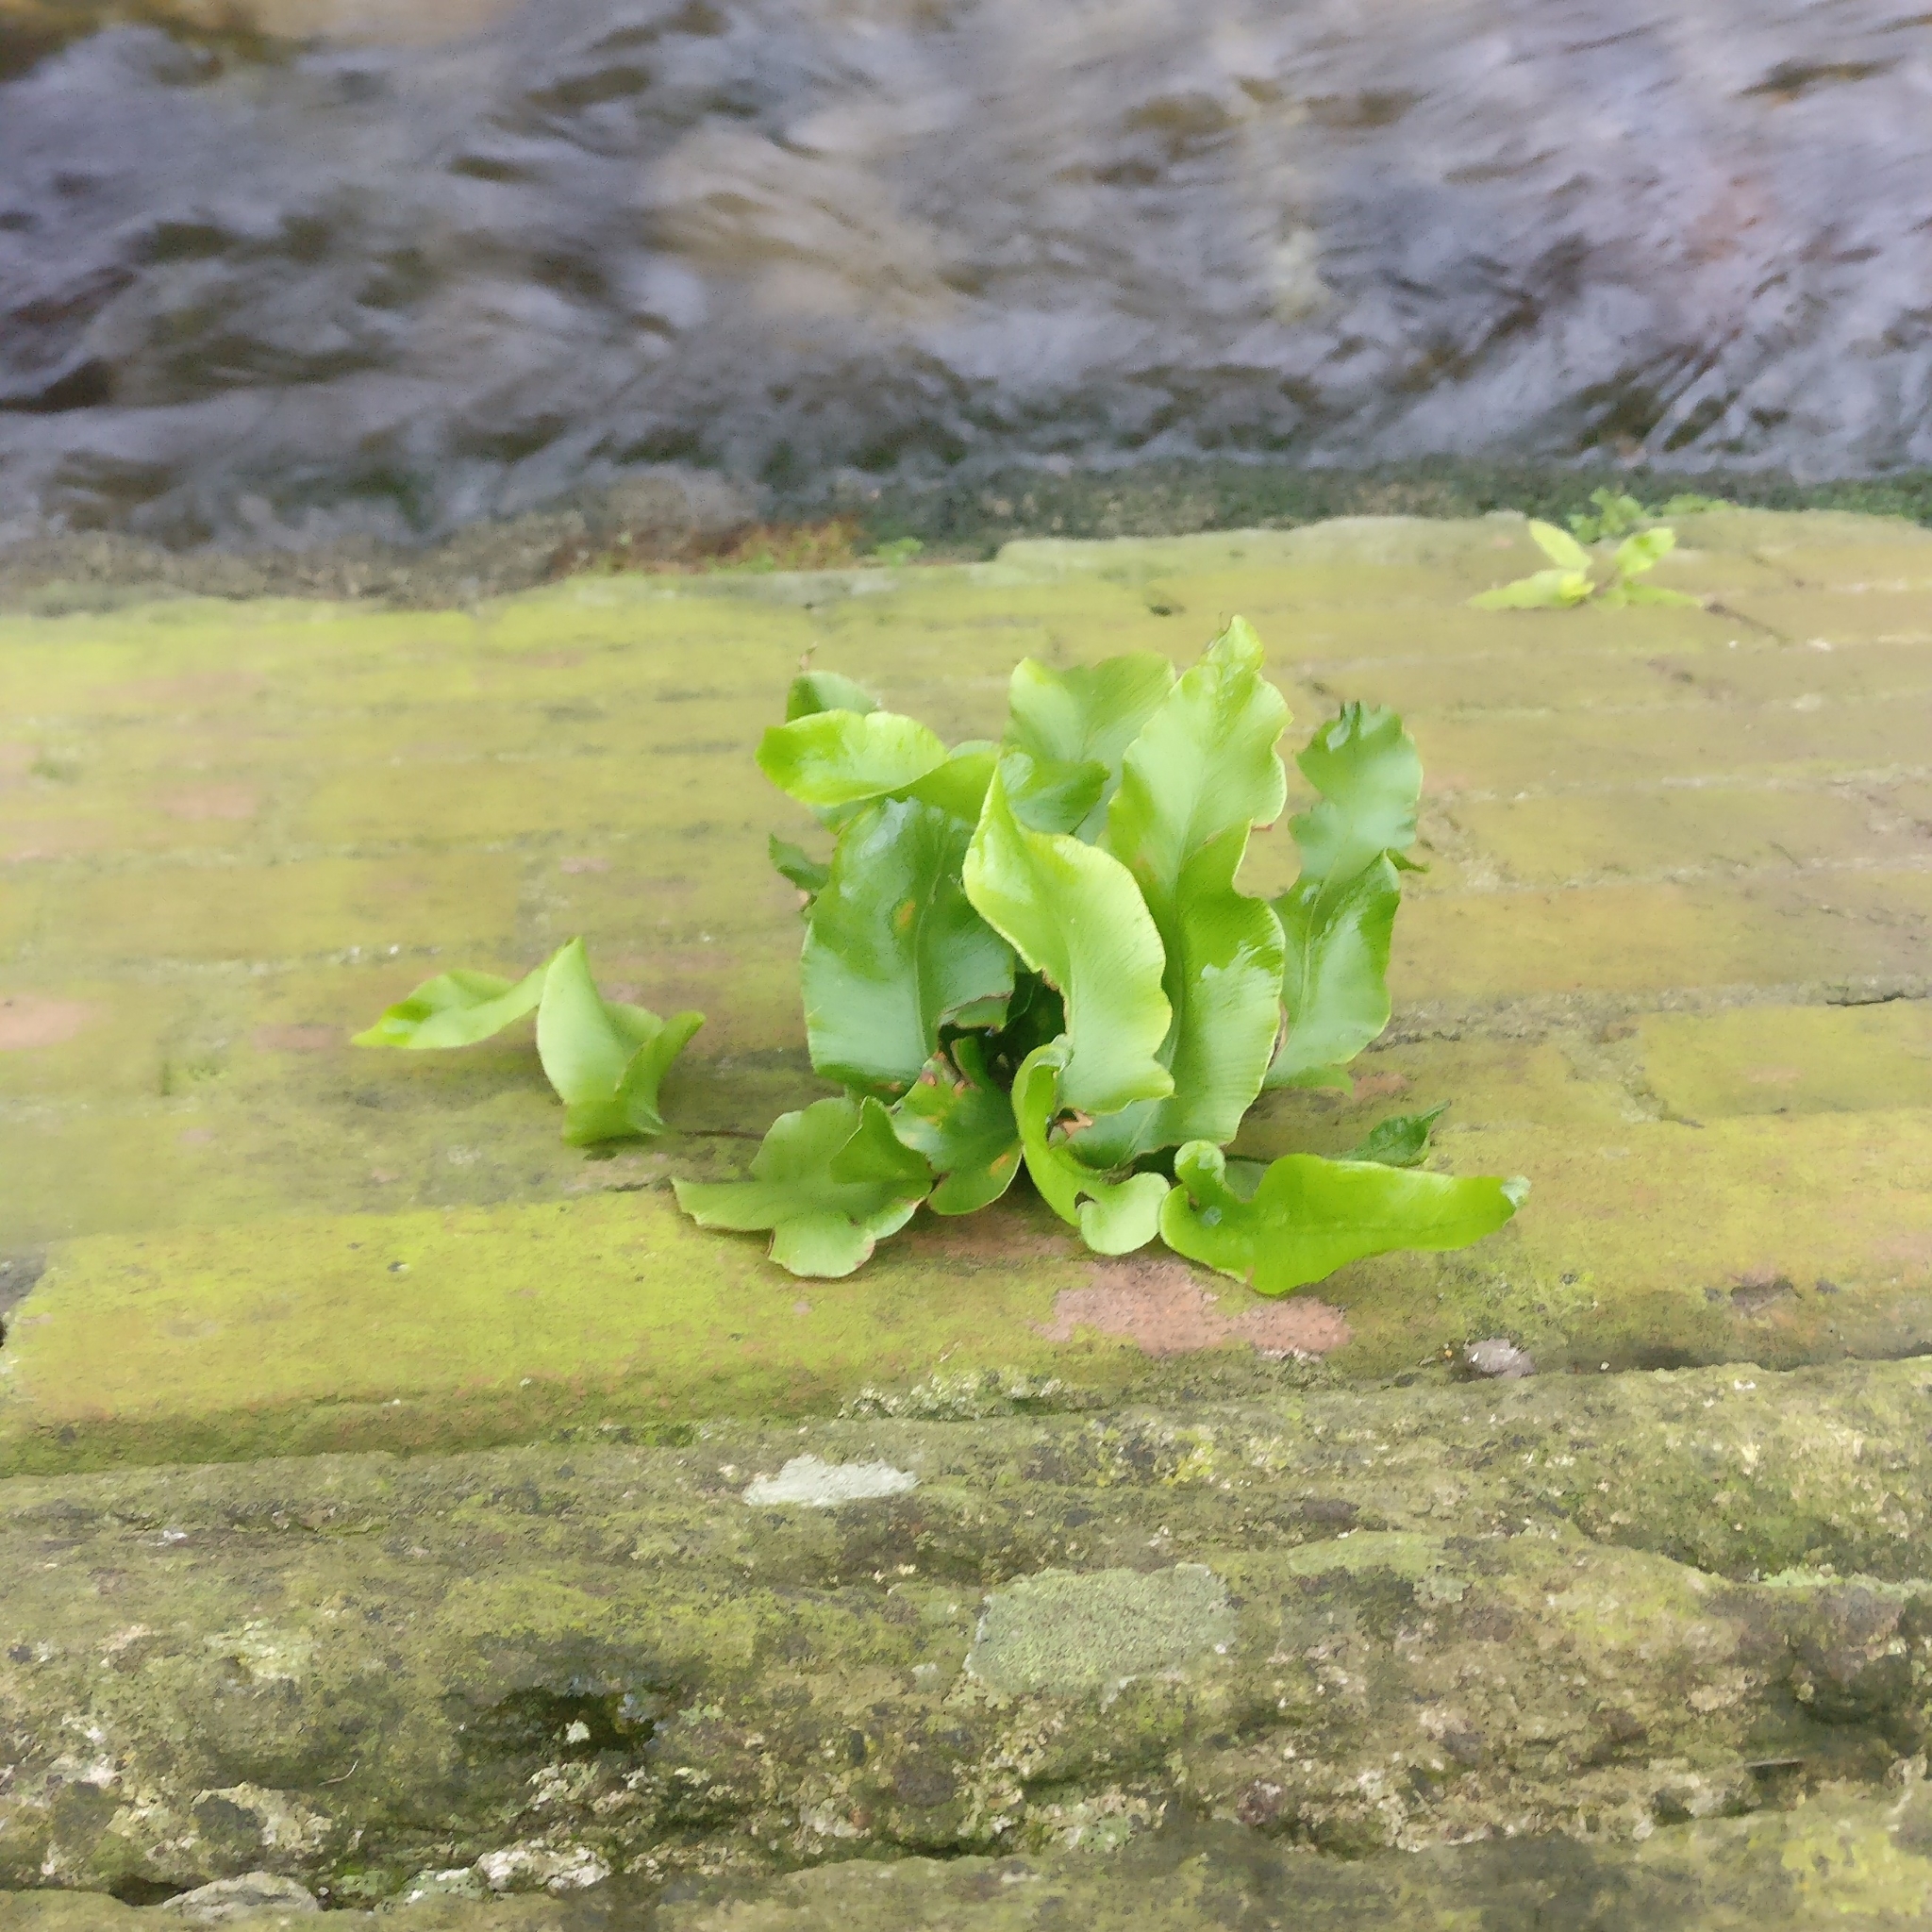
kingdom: Plantae
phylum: Tracheophyta
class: Polypodiopsida
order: Polypodiales
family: Aspleniaceae
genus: Asplenium
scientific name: Asplenium scolopendrium
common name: Hart's-tongue fern
